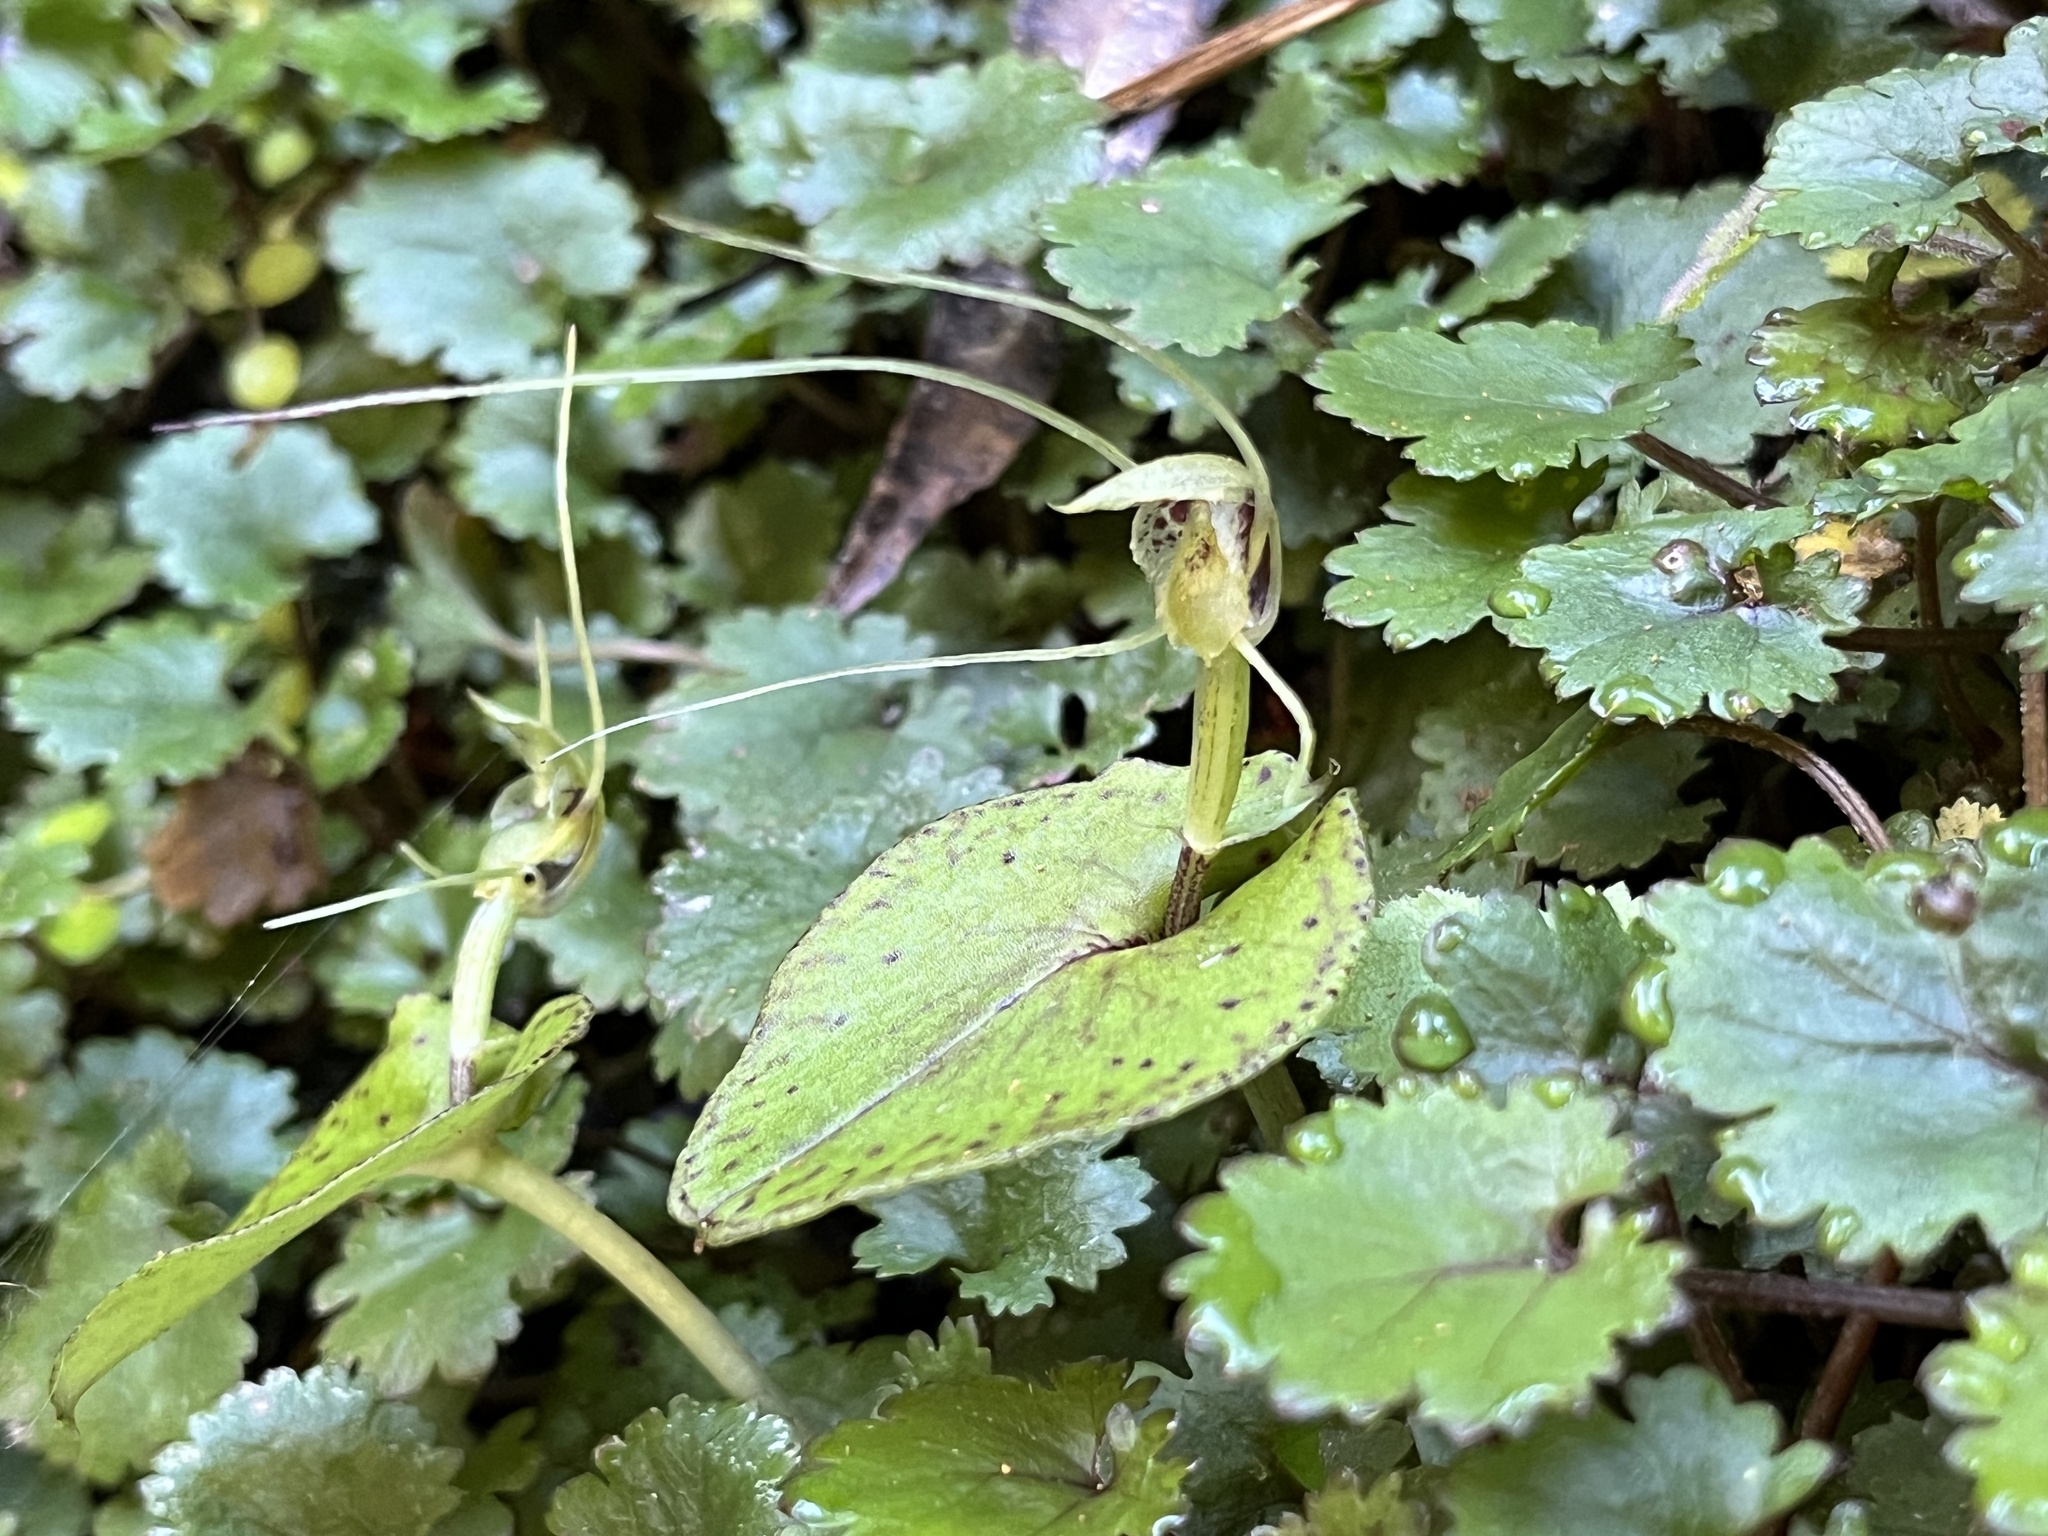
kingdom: Plantae
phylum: Tracheophyta
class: Liliopsida
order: Asparagales
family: Orchidaceae
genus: Corybas
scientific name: Corybas papa
